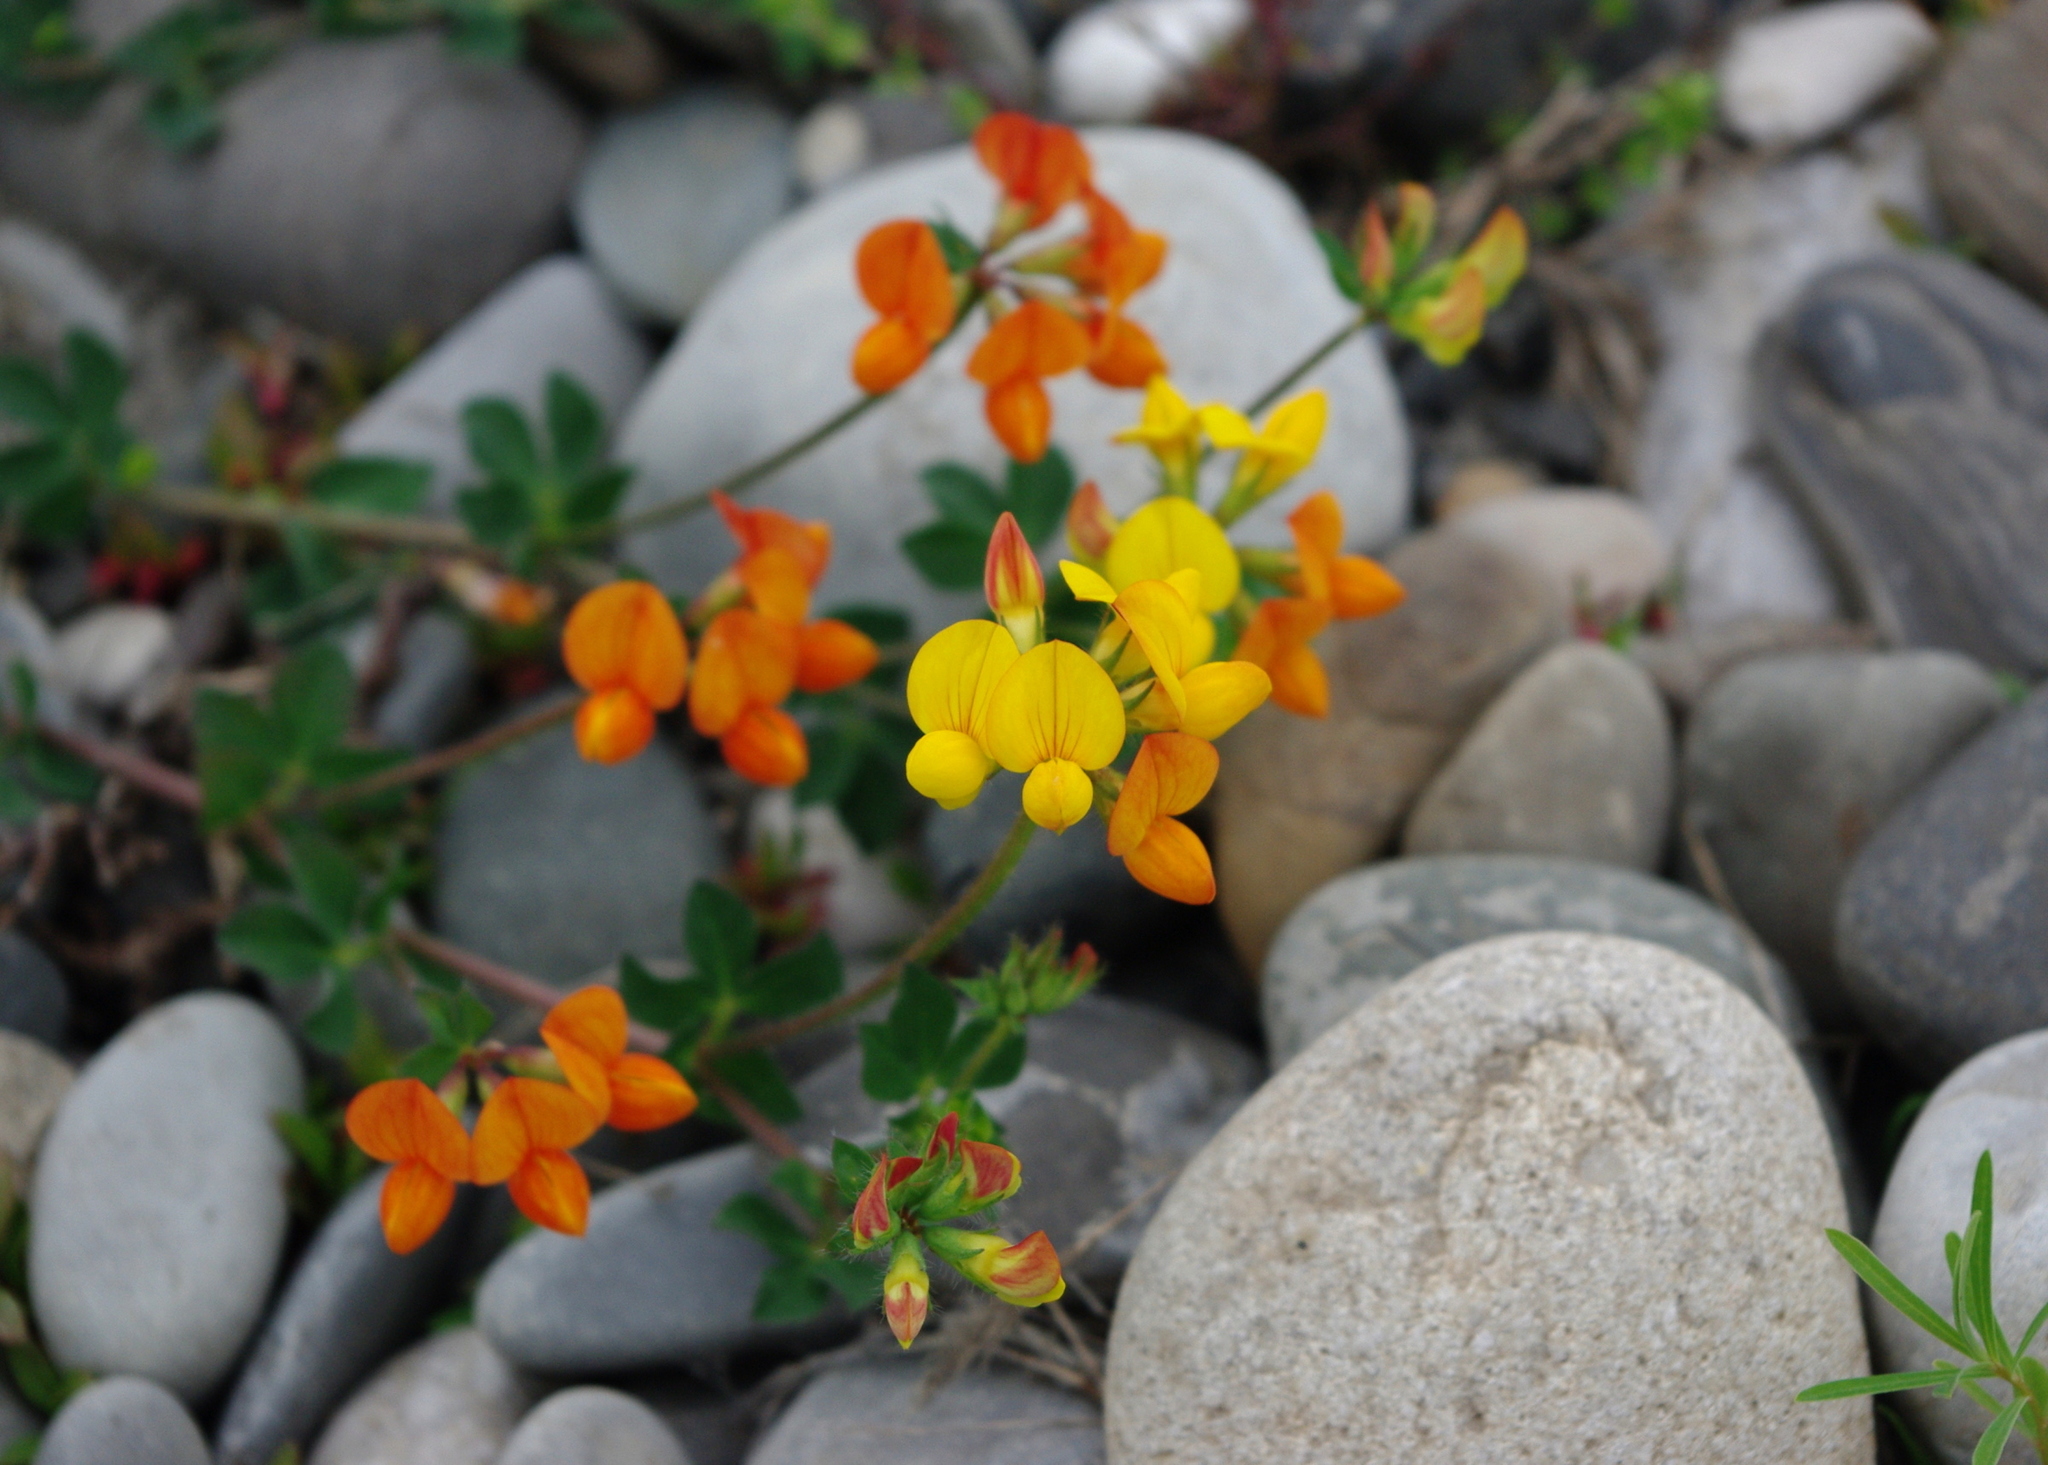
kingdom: Plantae
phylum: Tracheophyta
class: Magnoliopsida
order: Fabales
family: Fabaceae
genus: Lotus
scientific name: Lotus corniculatus
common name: Common bird's-foot-trefoil
